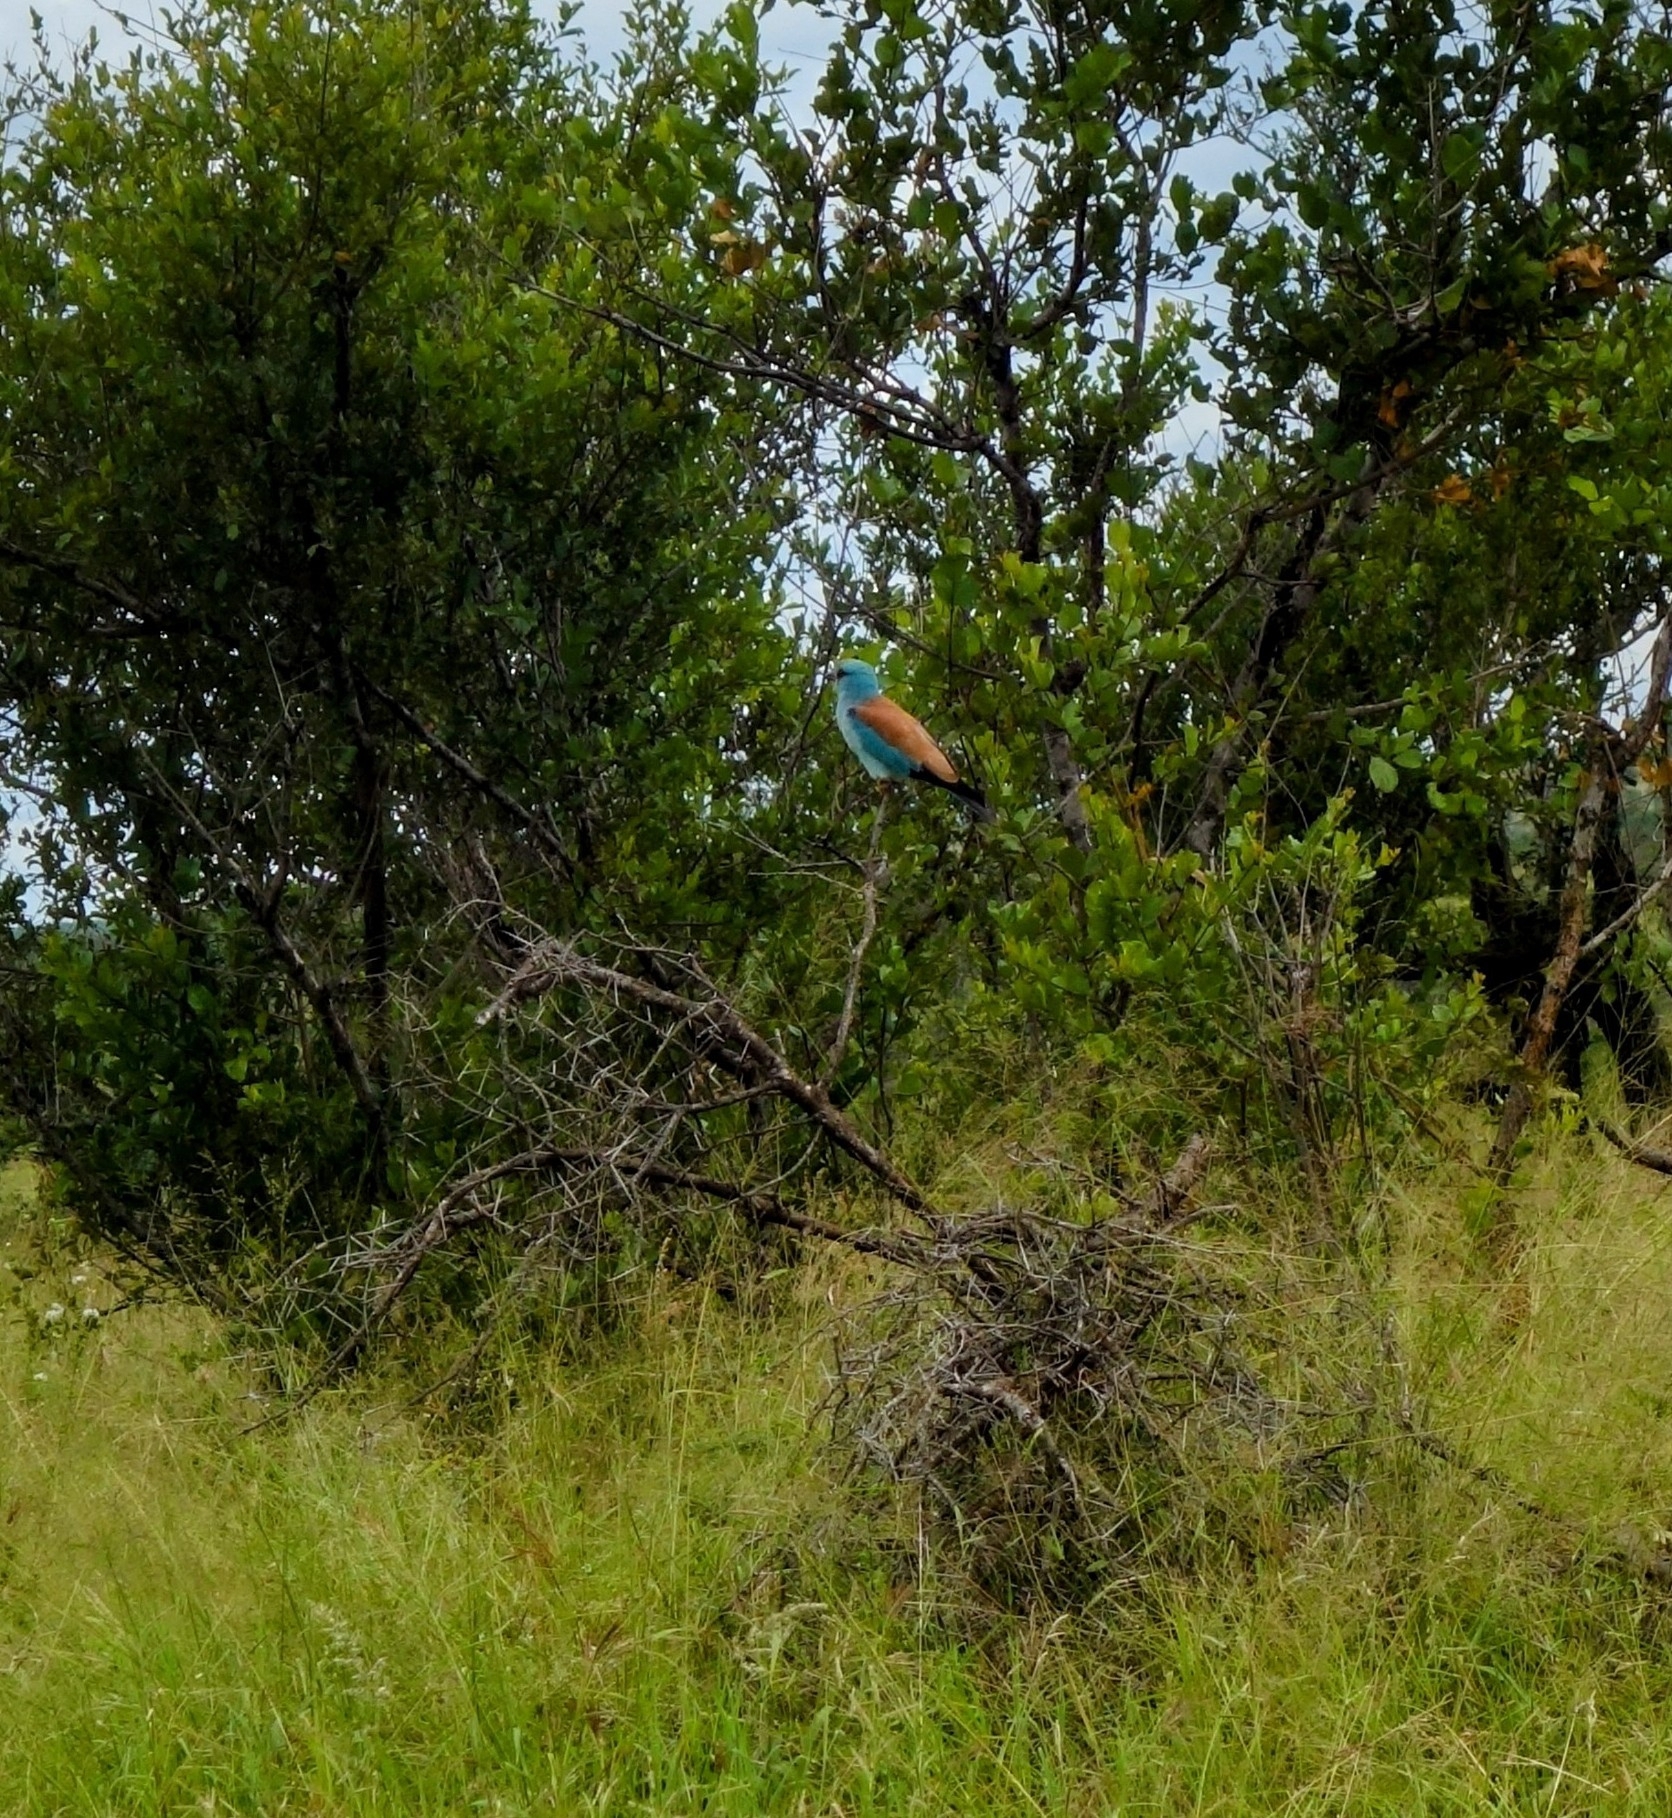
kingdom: Animalia
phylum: Chordata
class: Aves
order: Coraciiformes
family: Coraciidae
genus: Coracias
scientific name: Coracias garrulus
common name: European roller
